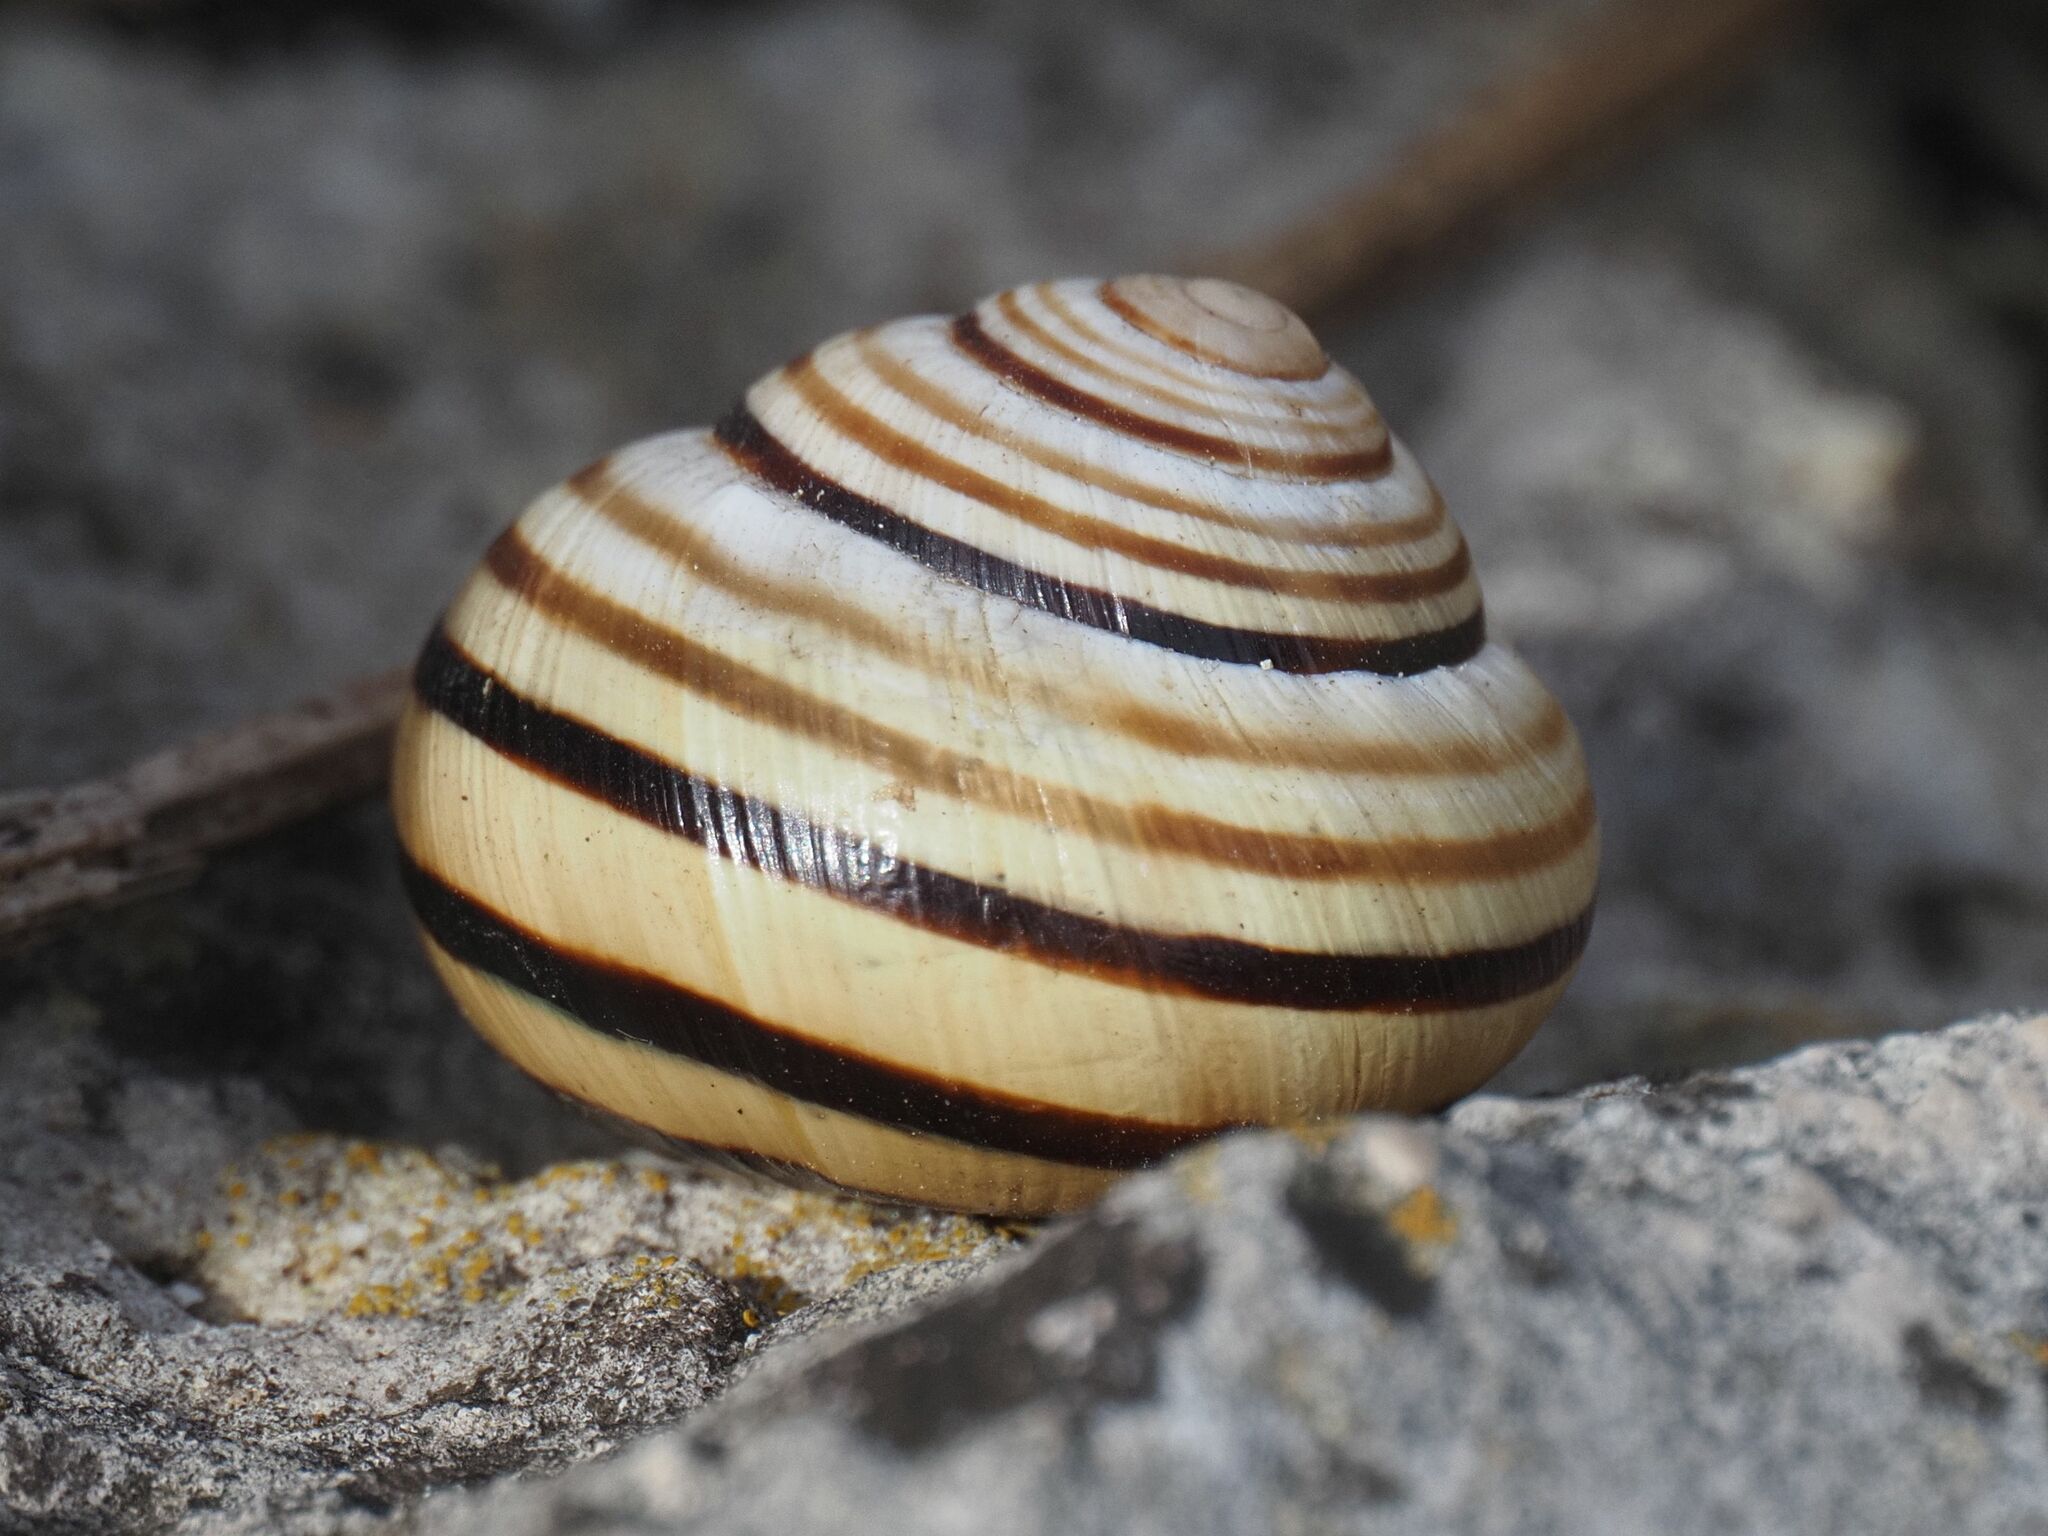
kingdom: Animalia
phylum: Mollusca
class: Gastropoda
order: Stylommatophora
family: Helicidae
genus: Caucasotachea
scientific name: Caucasotachea vindobonensis
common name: European helicid land snail
